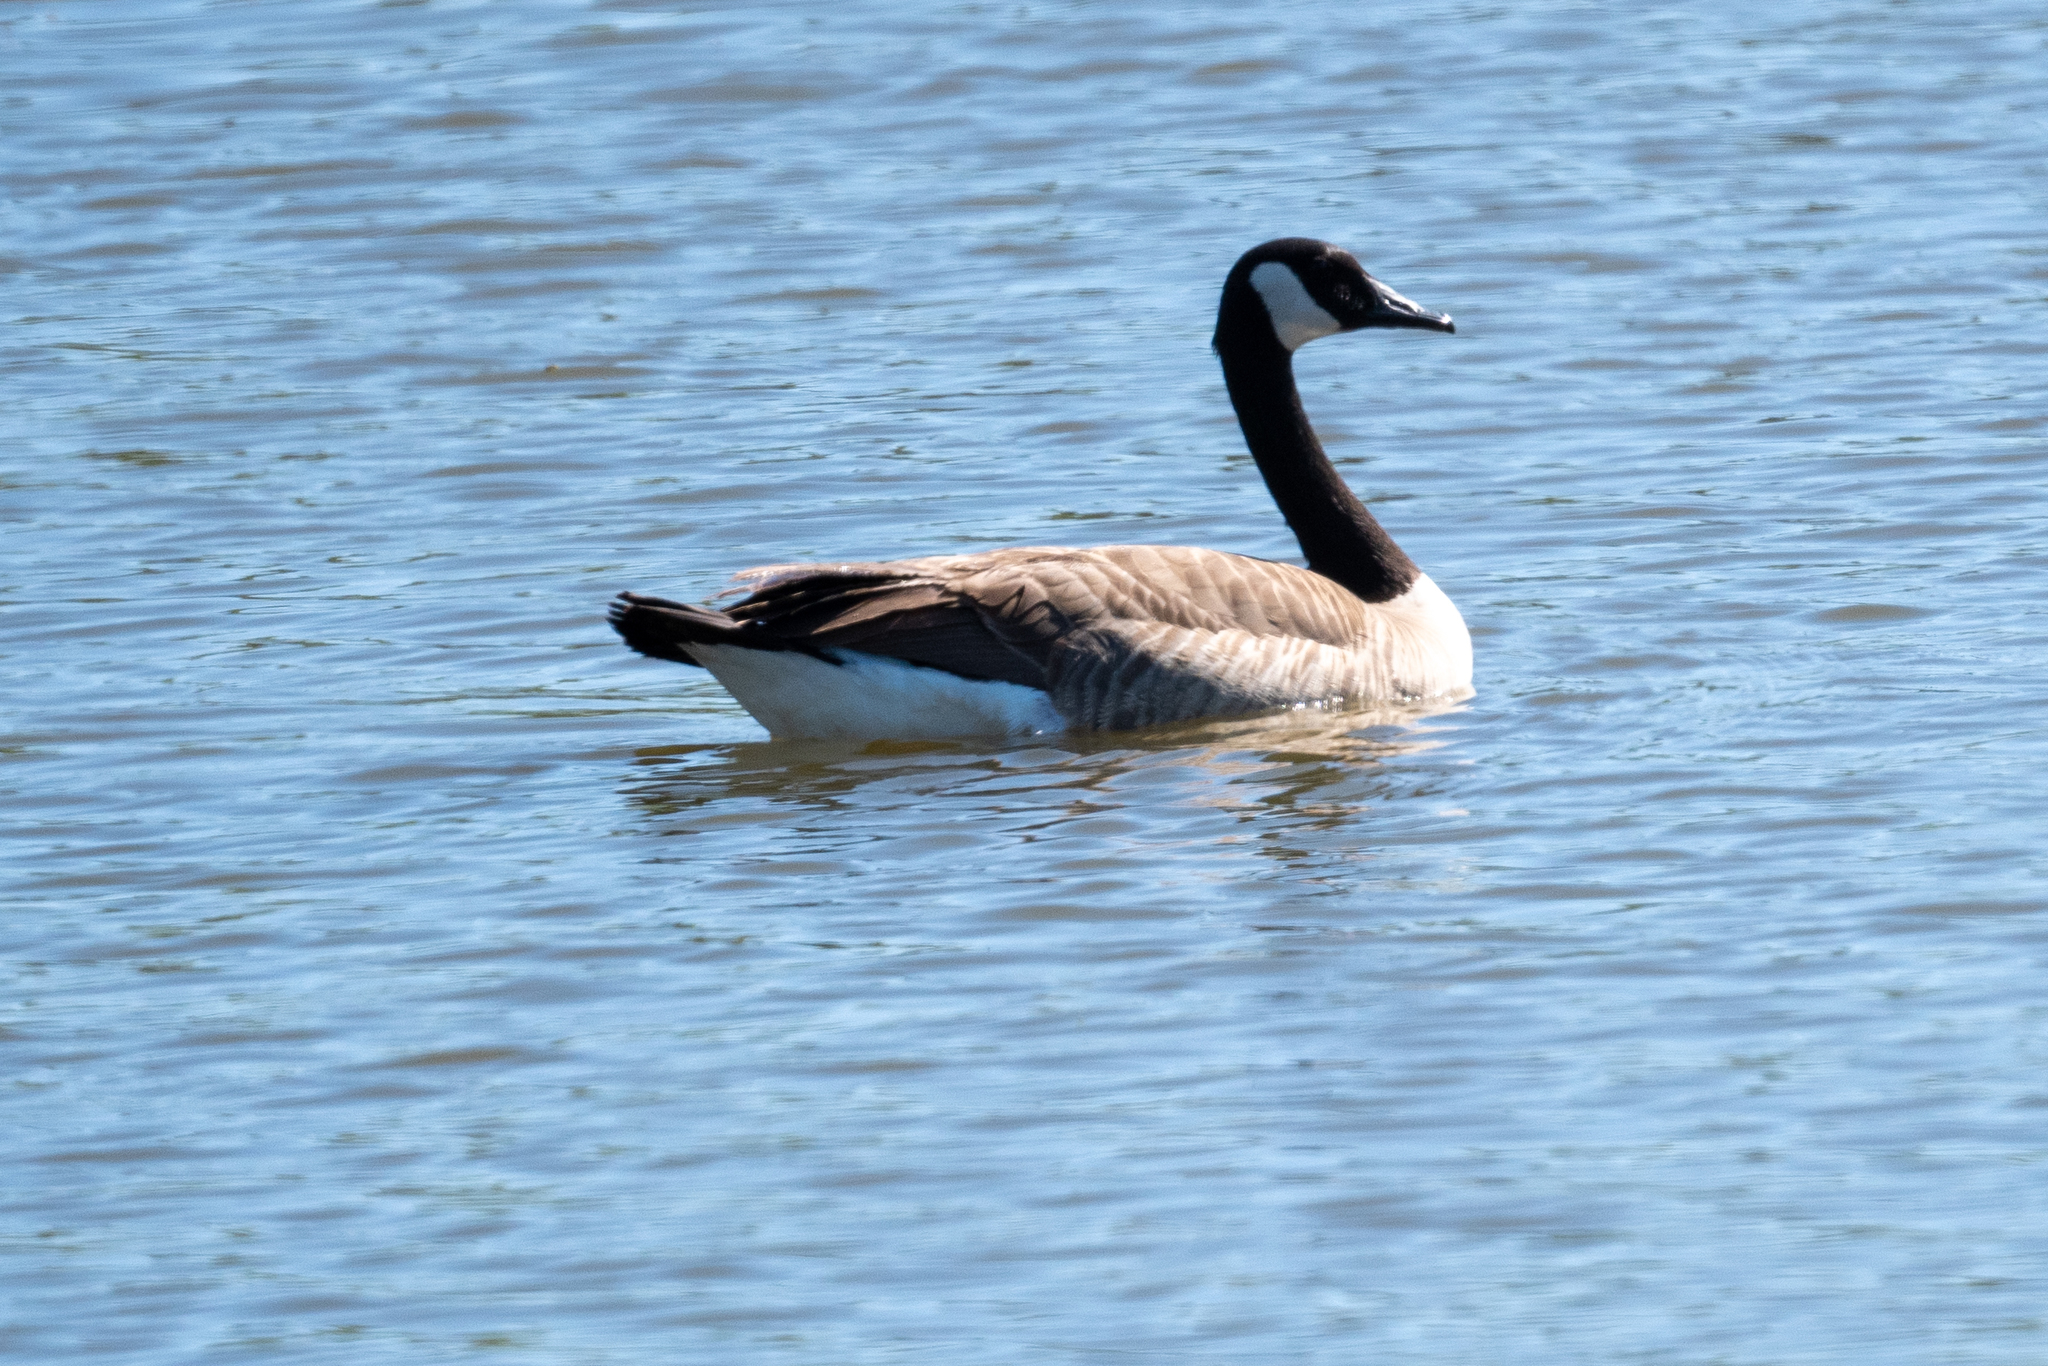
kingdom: Animalia
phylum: Chordata
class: Aves
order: Anseriformes
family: Anatidae
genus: Branta
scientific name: Branta canadensis
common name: Canada goose
